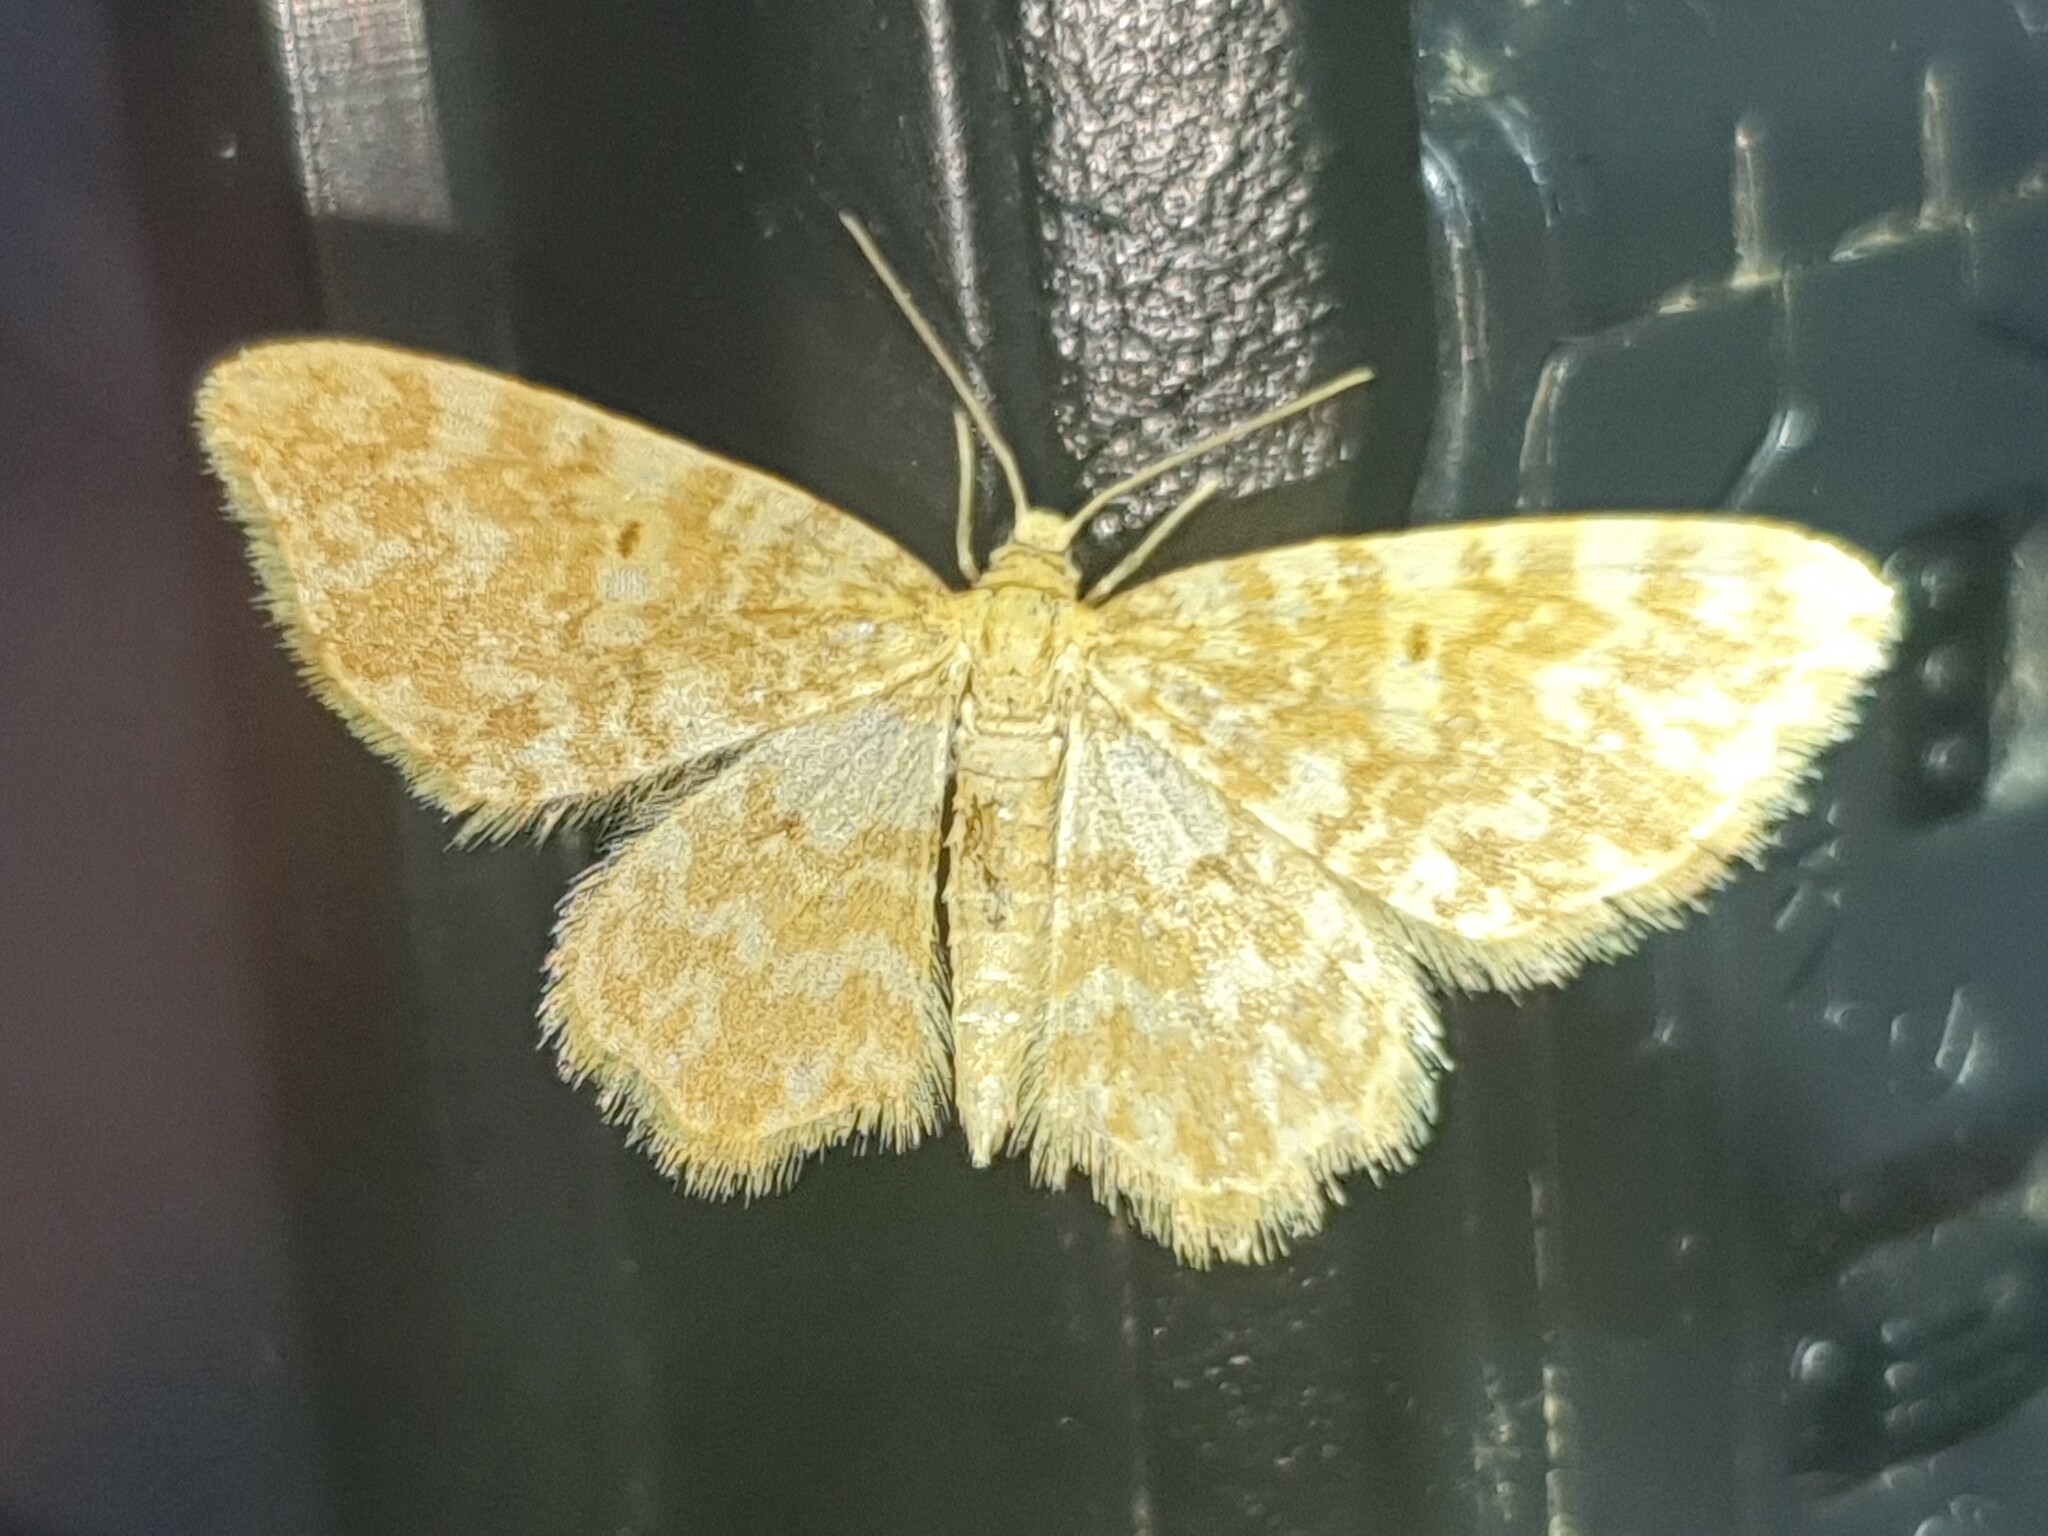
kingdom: Animalia
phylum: Arthropoda
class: Insecta
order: Lepidoptera
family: Geometridae
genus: Hydrelia
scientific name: Hydrelia flammeolaria
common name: Small yellow wave
